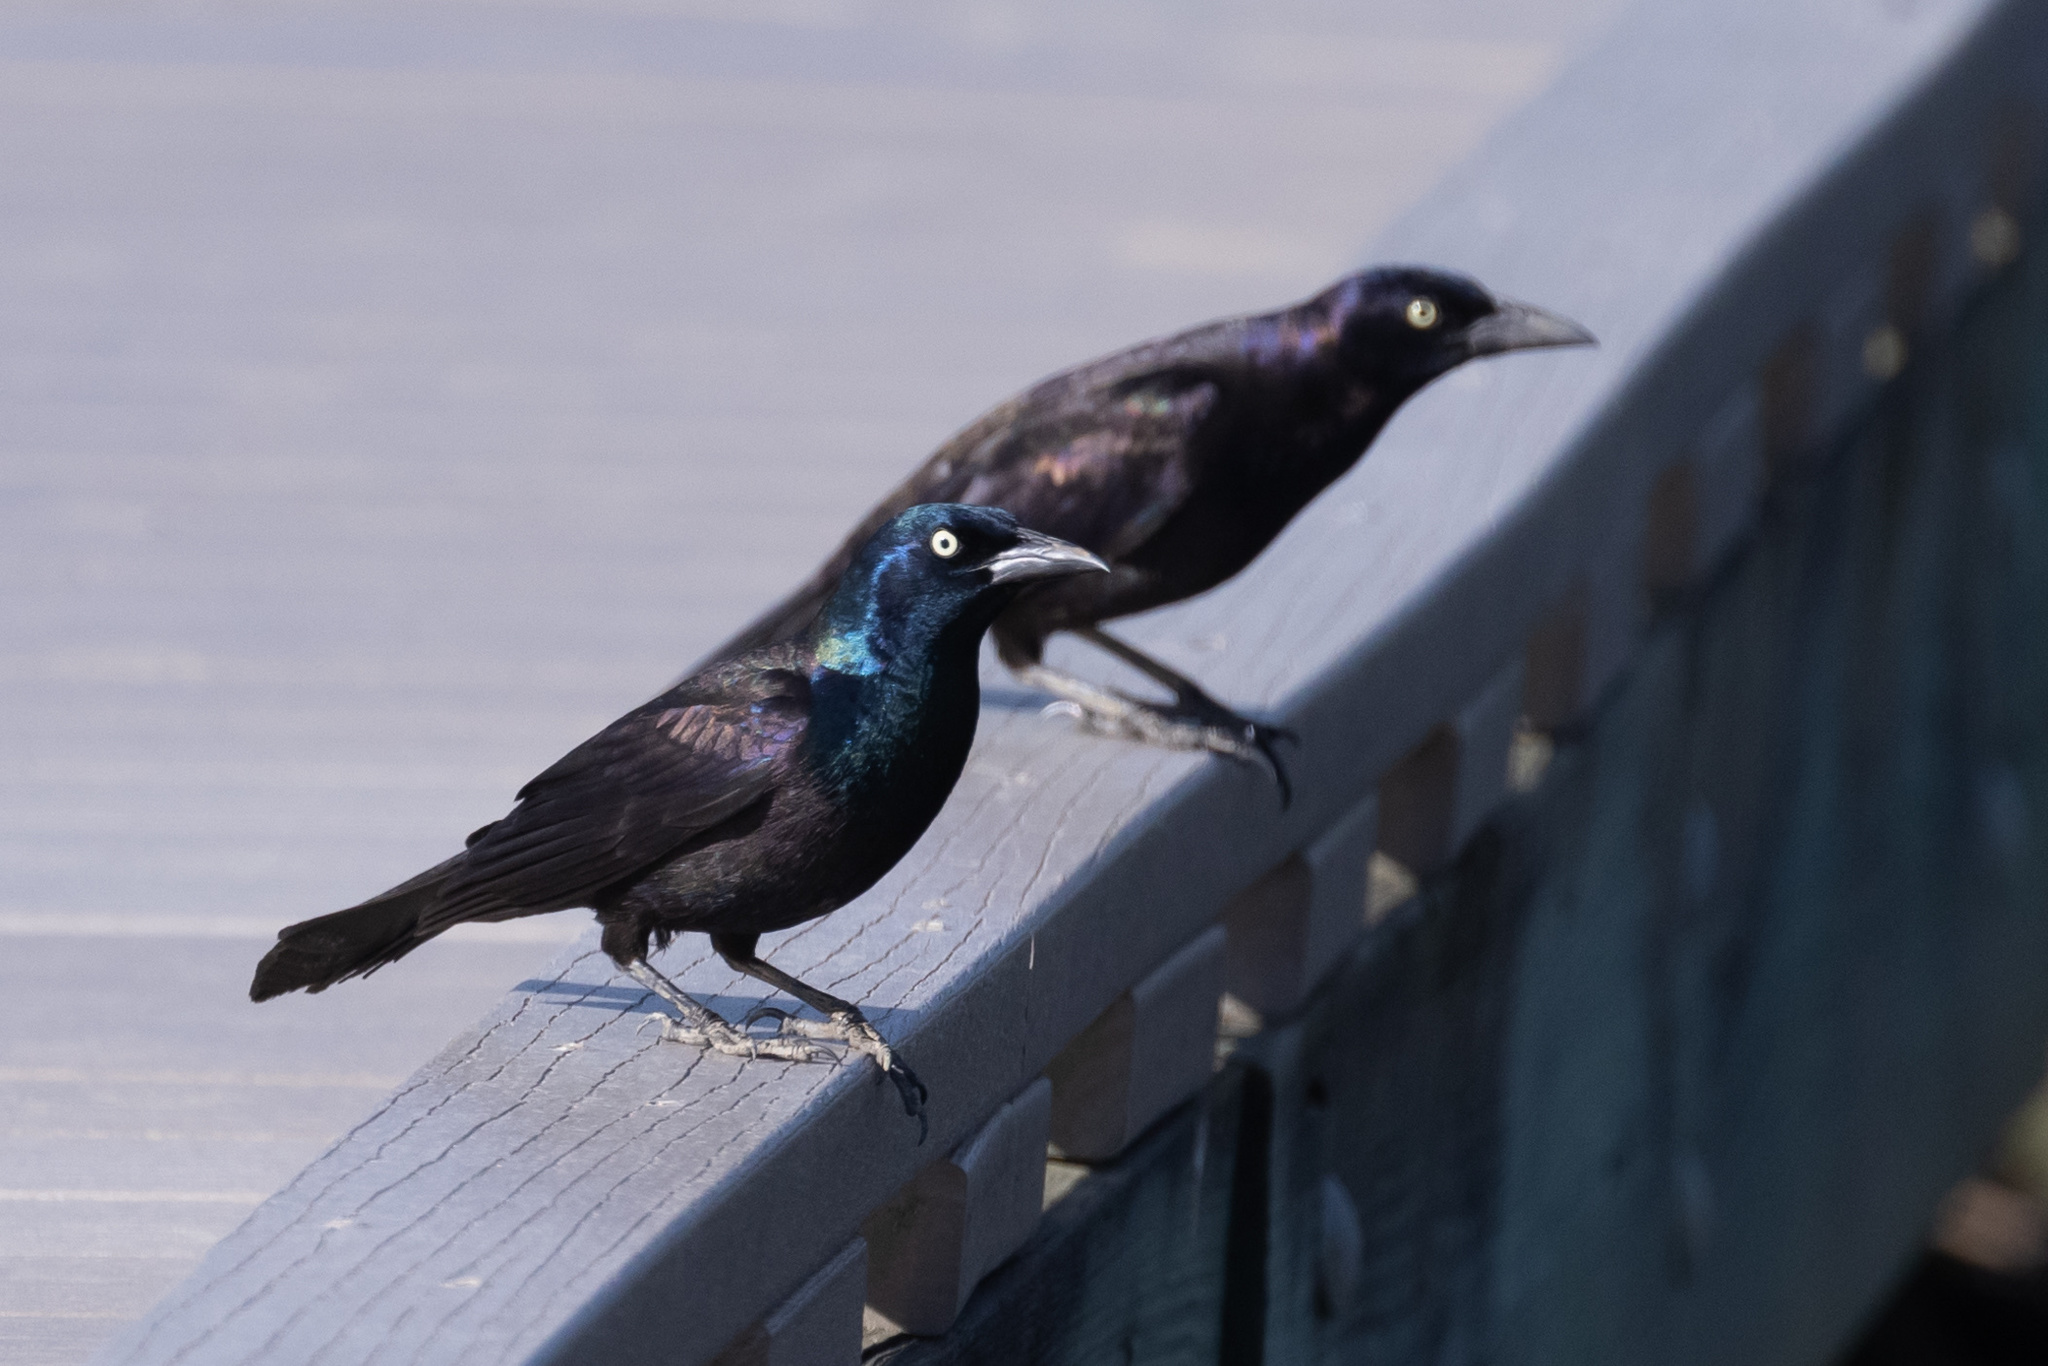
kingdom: Animalia
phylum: Chordata
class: Aves
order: Passeriformes
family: Icteridae
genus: Quiscalus
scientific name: Quiscalus quiscula
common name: Common grackle
